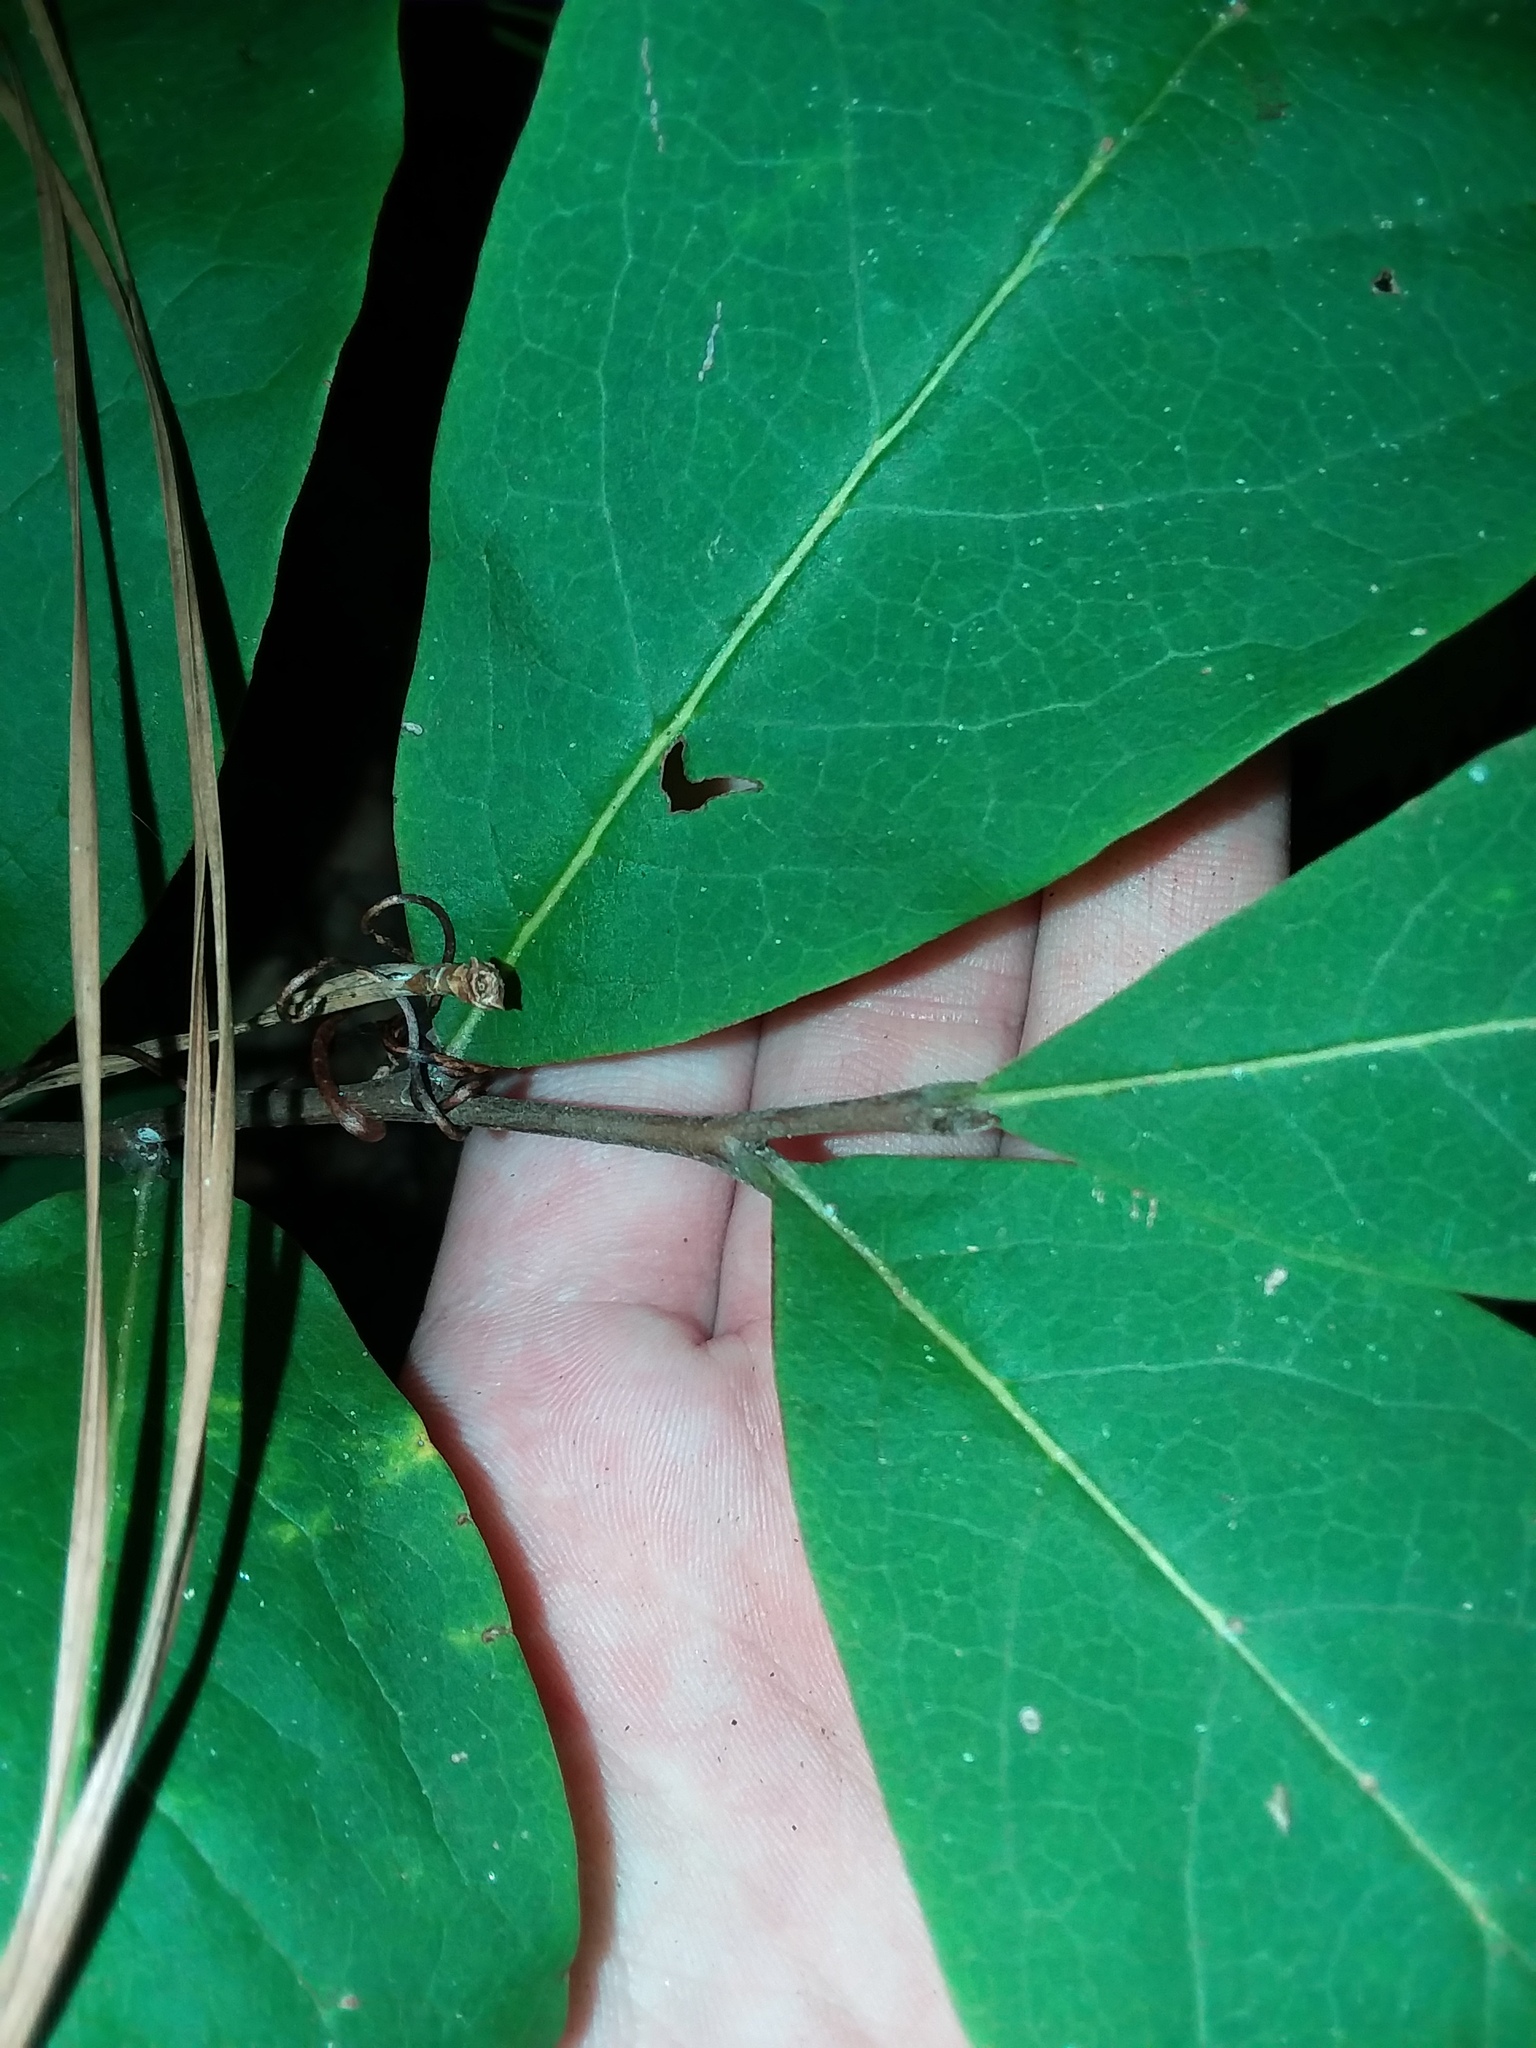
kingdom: Plantae
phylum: Tracheophyta
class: Magnoliopsida
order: Magnoliales
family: Annonaceae
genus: Asimina
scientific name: Asimina parviflora
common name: Dwarf pawpaw
